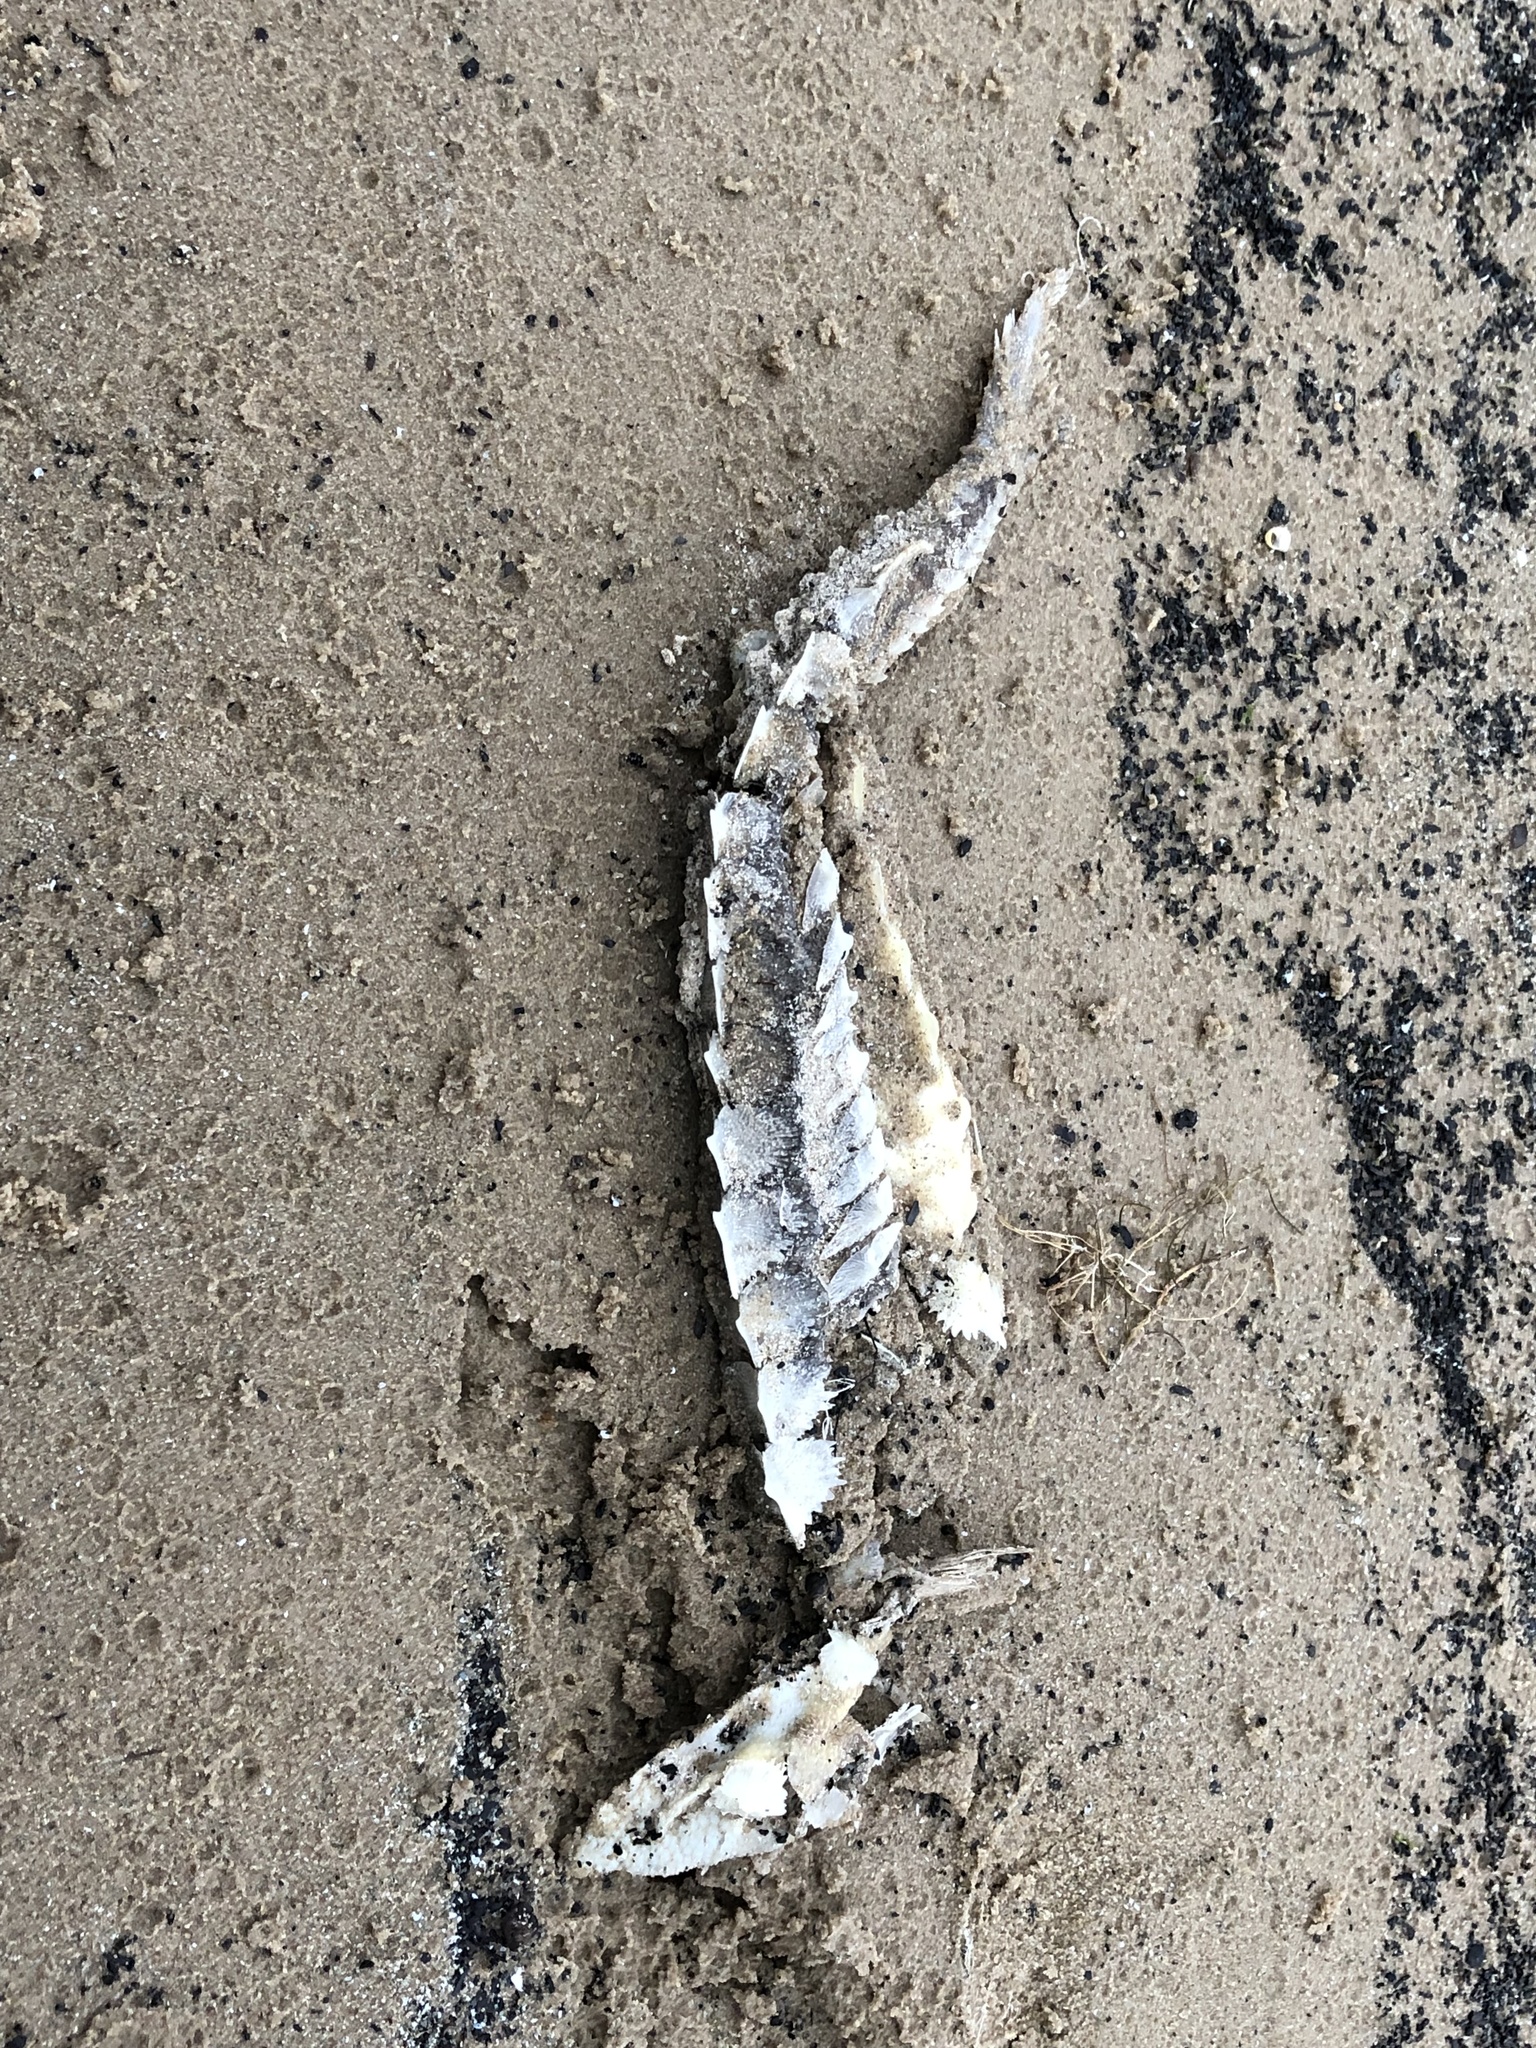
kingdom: Animalia
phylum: Chordata
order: Acipenseriformes
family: Acipenseridae
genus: Acipenser
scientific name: Acipenser fulvescens
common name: Lake sturgeon
